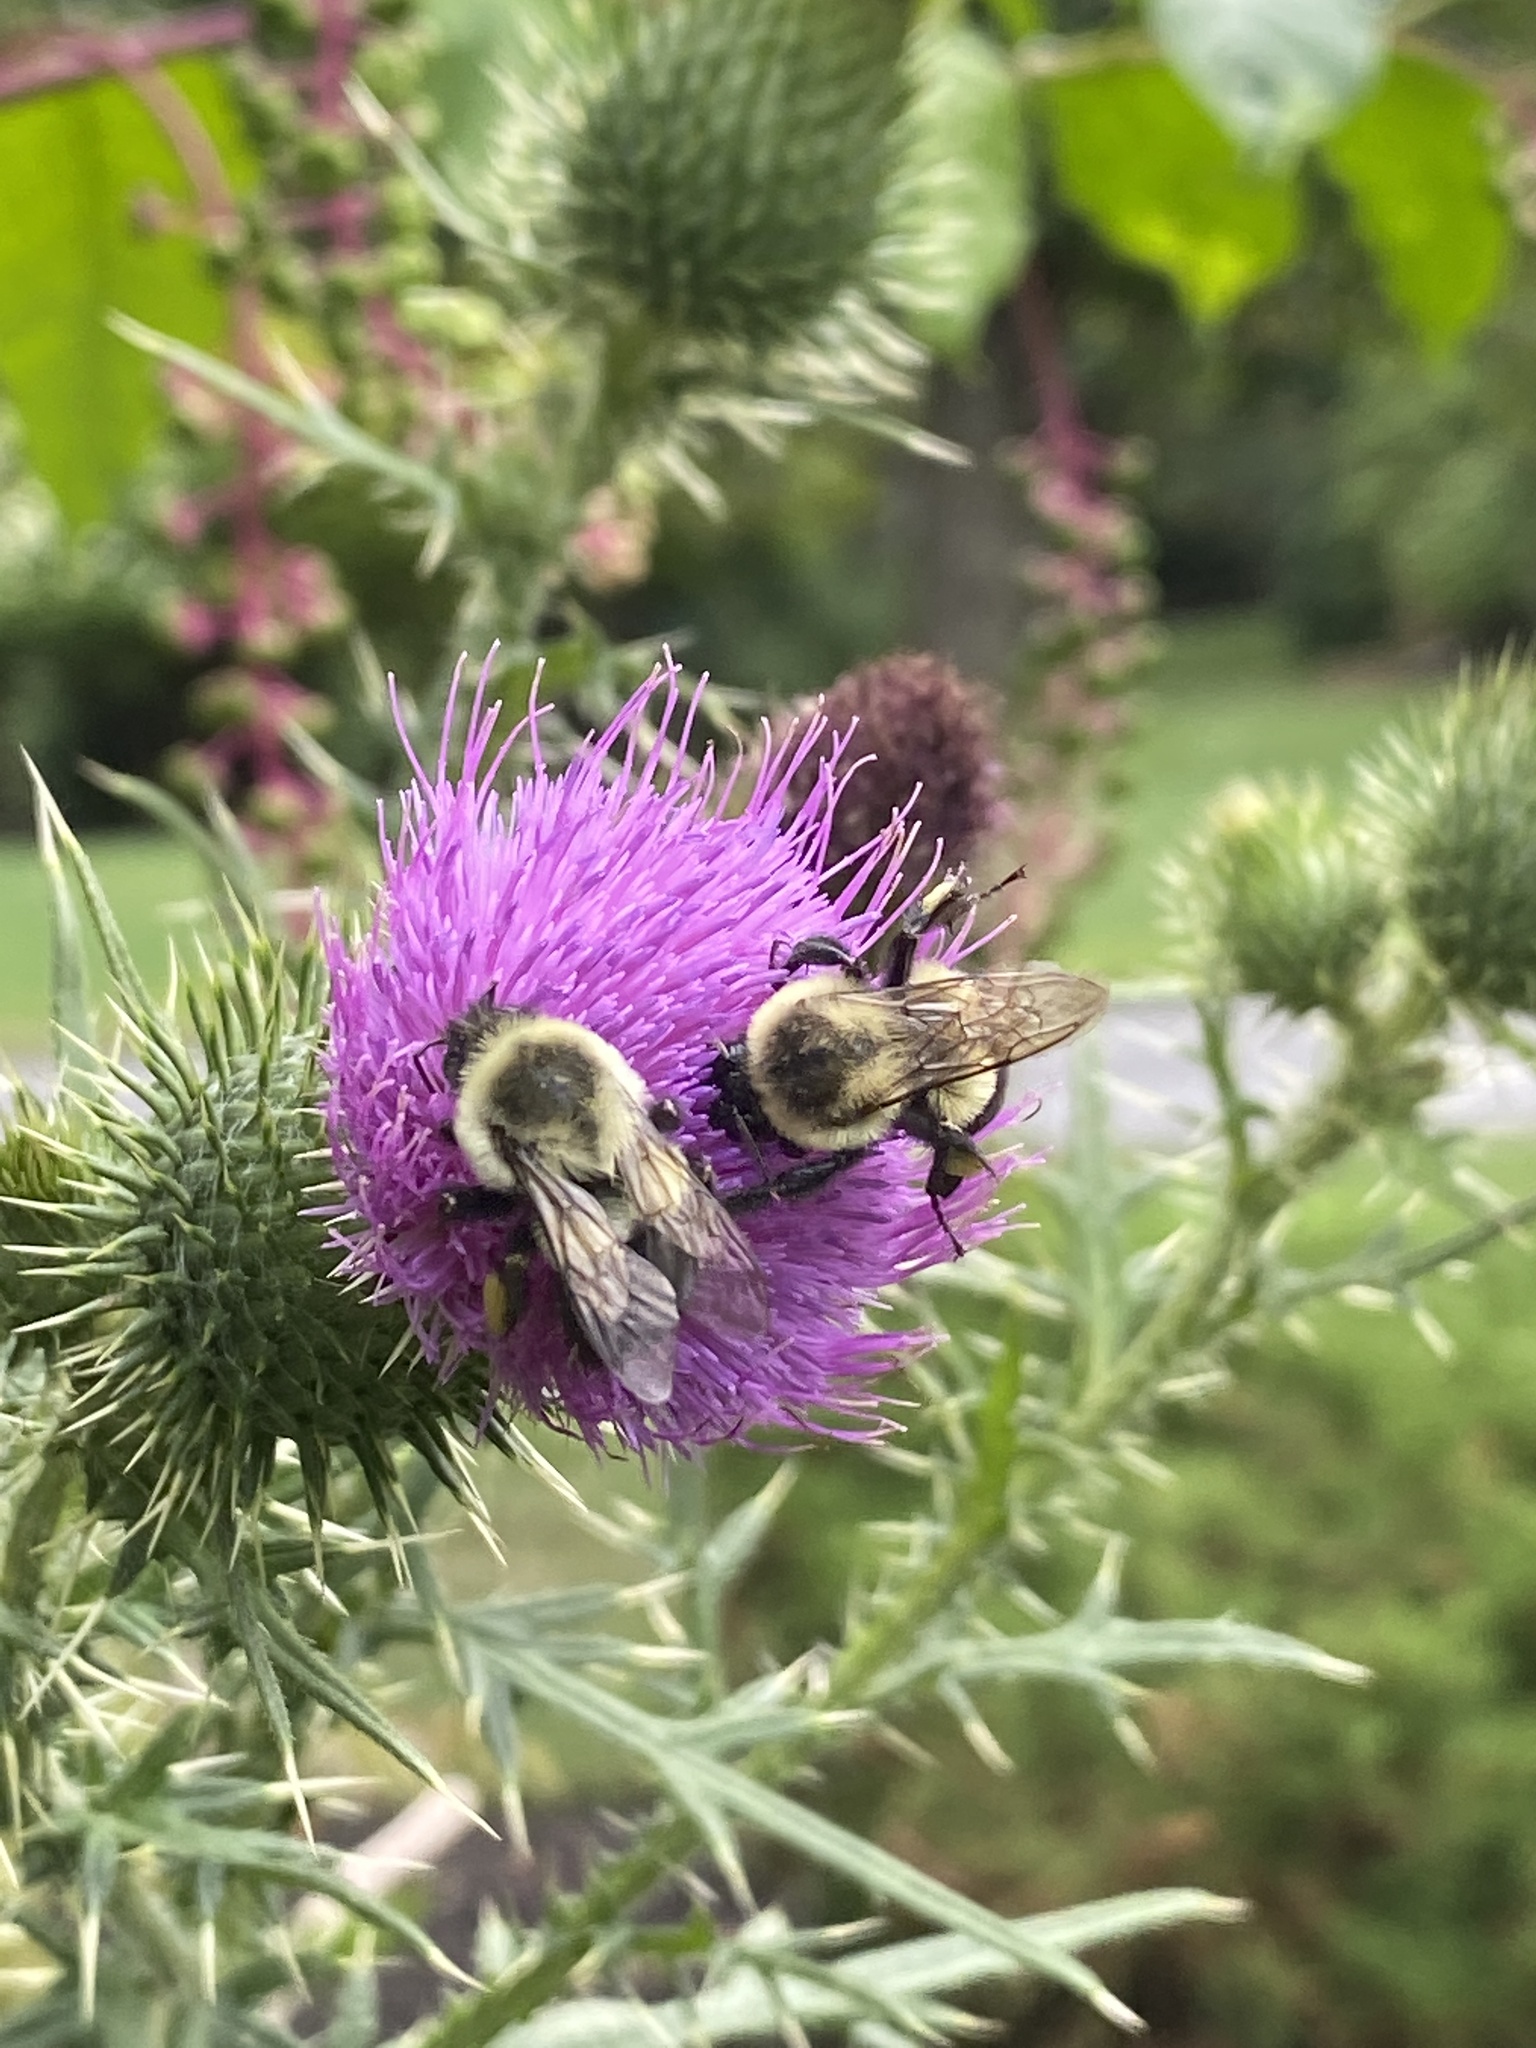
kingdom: Animalia
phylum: Arthropoda
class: Insecta
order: Hymenoptera
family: Apidae
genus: Bombus
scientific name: Bombus impatiens
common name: Common eastern bumble bee
